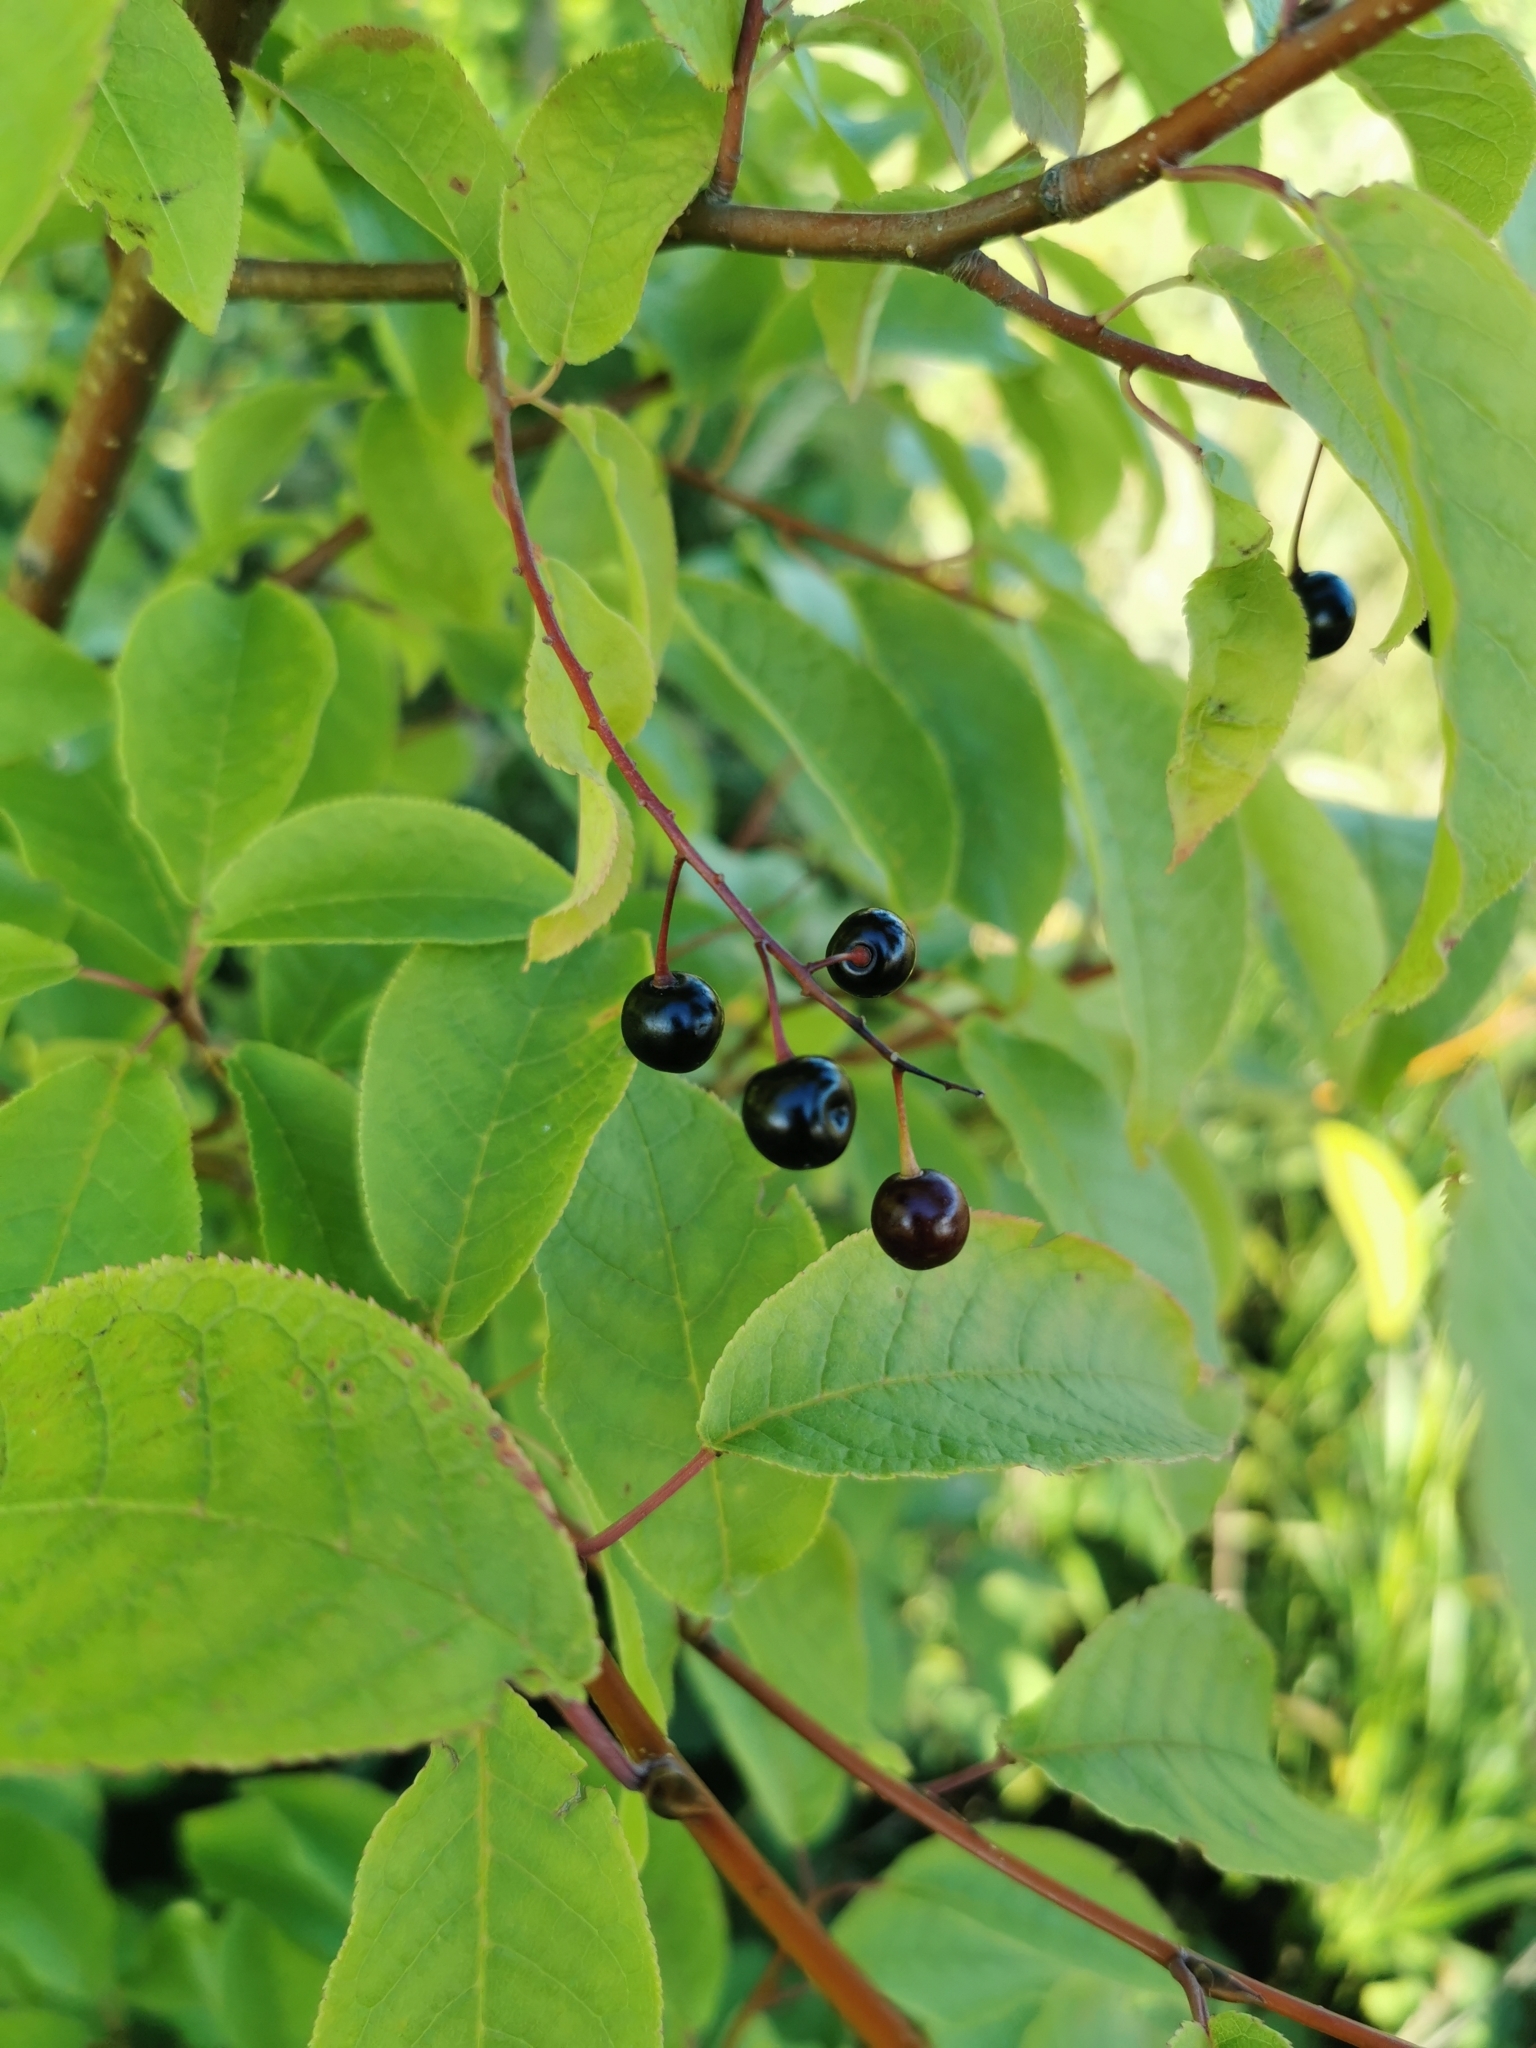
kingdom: Plantae
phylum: Tracheophyta
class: Magnoliopsida
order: Rosales
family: Rosaceae
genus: Prunus
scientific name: Prunus padus
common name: Bird cherry
